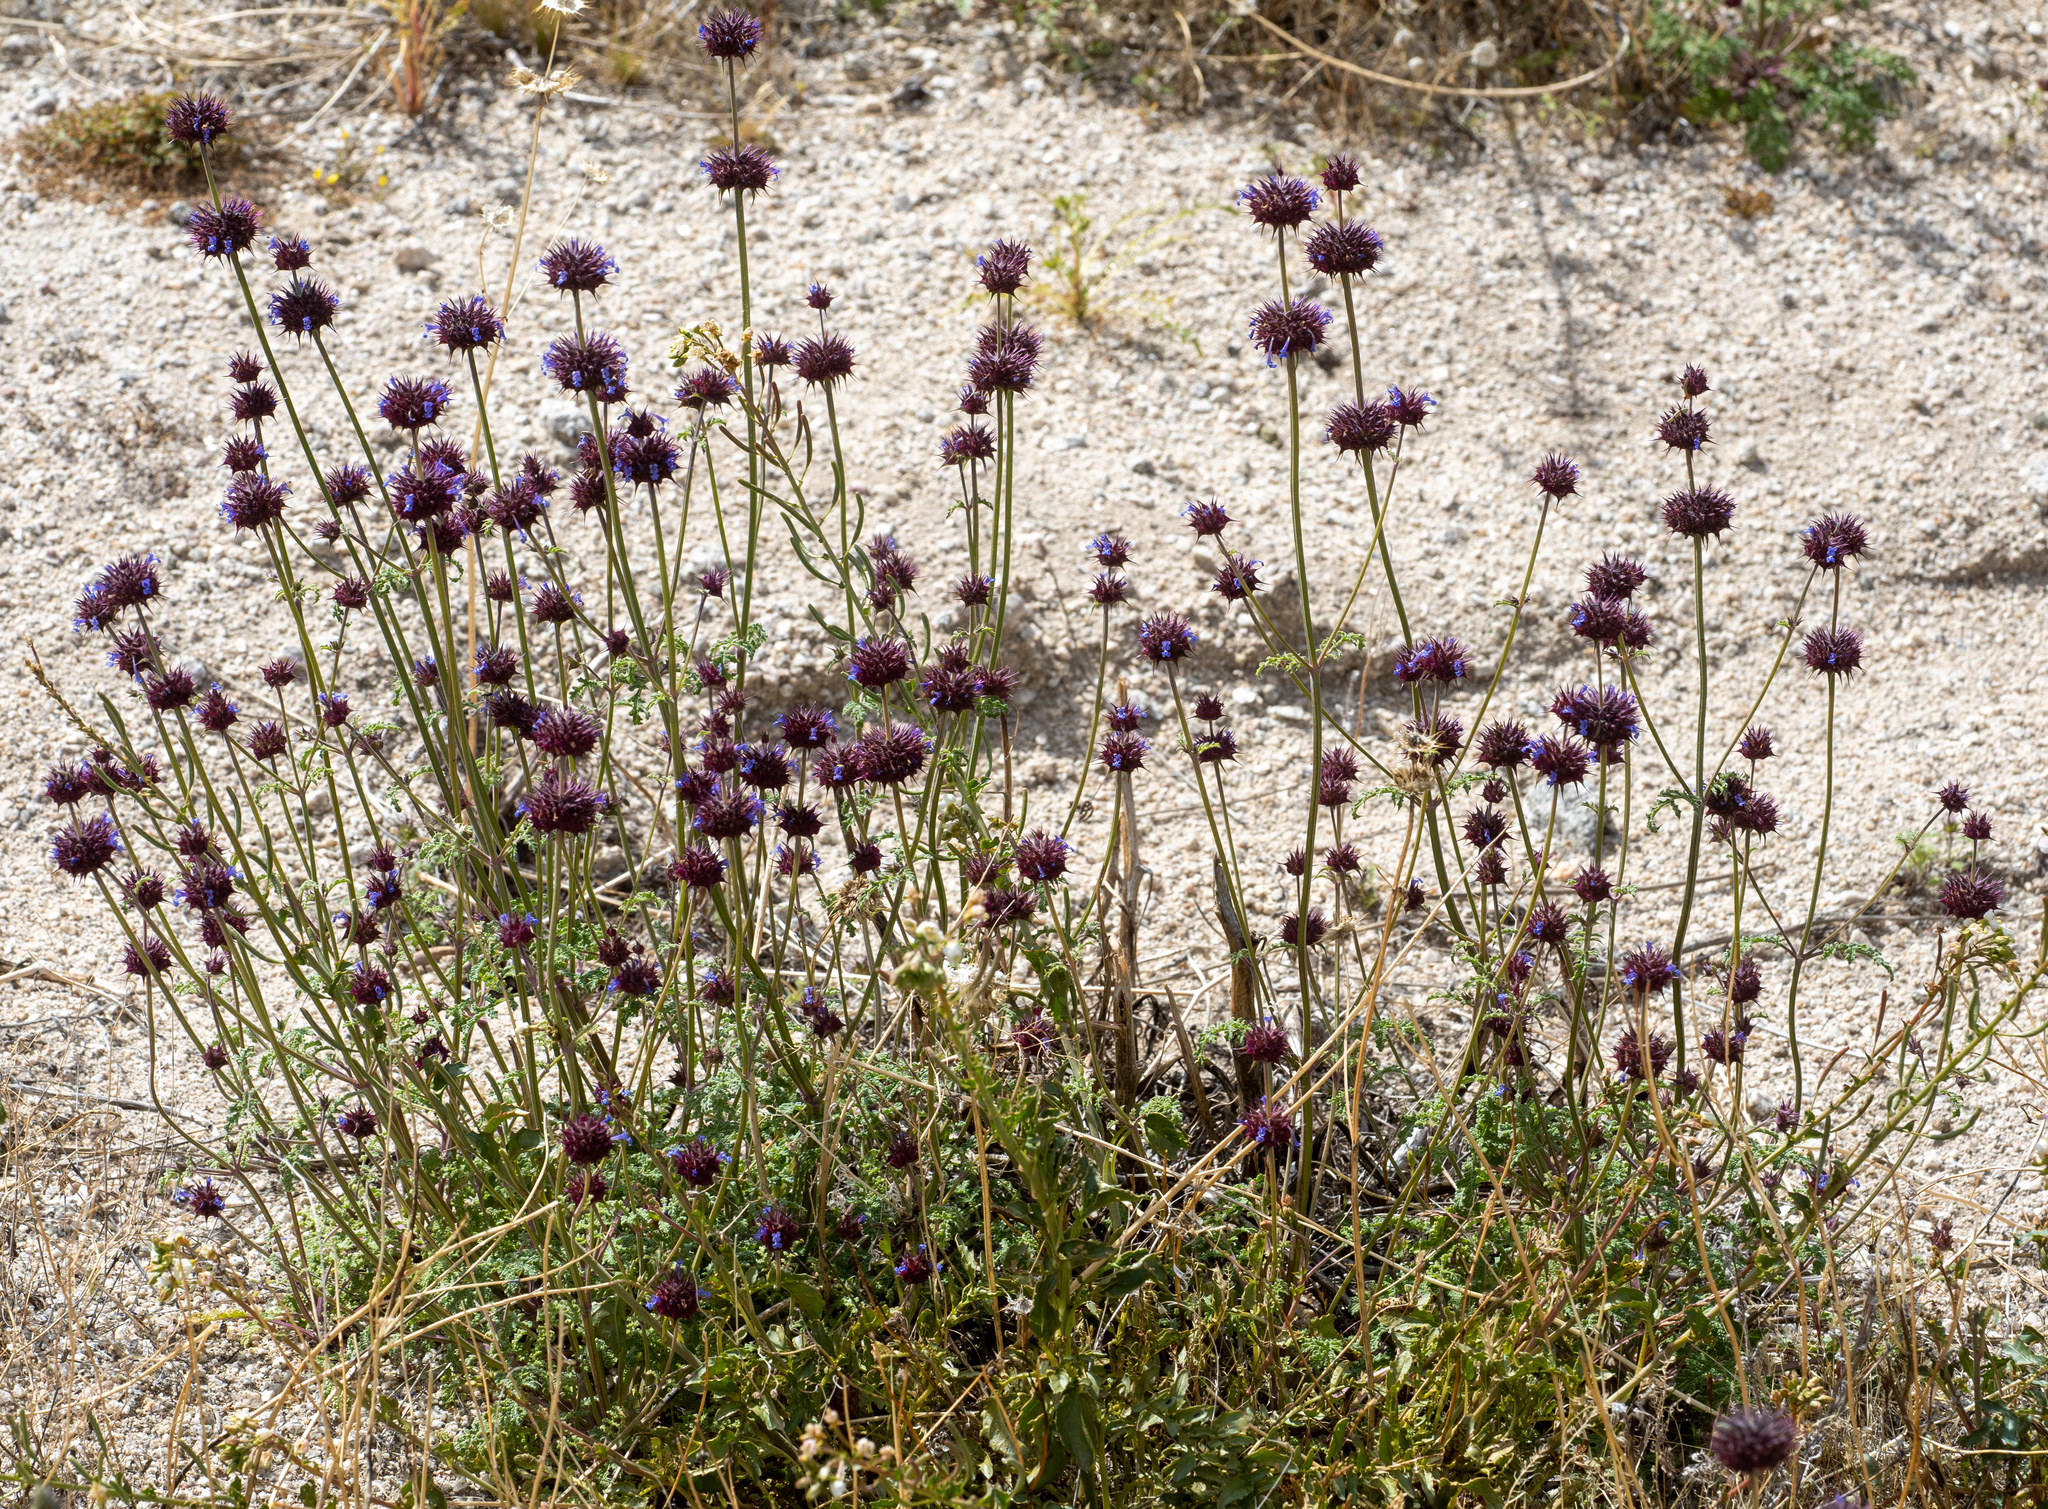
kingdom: Plantae
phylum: Tracheophyta
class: Magnoliopsida
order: Lamiales
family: Lamiaceae
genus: Salvia
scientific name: Salvia columbariae
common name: Chia
